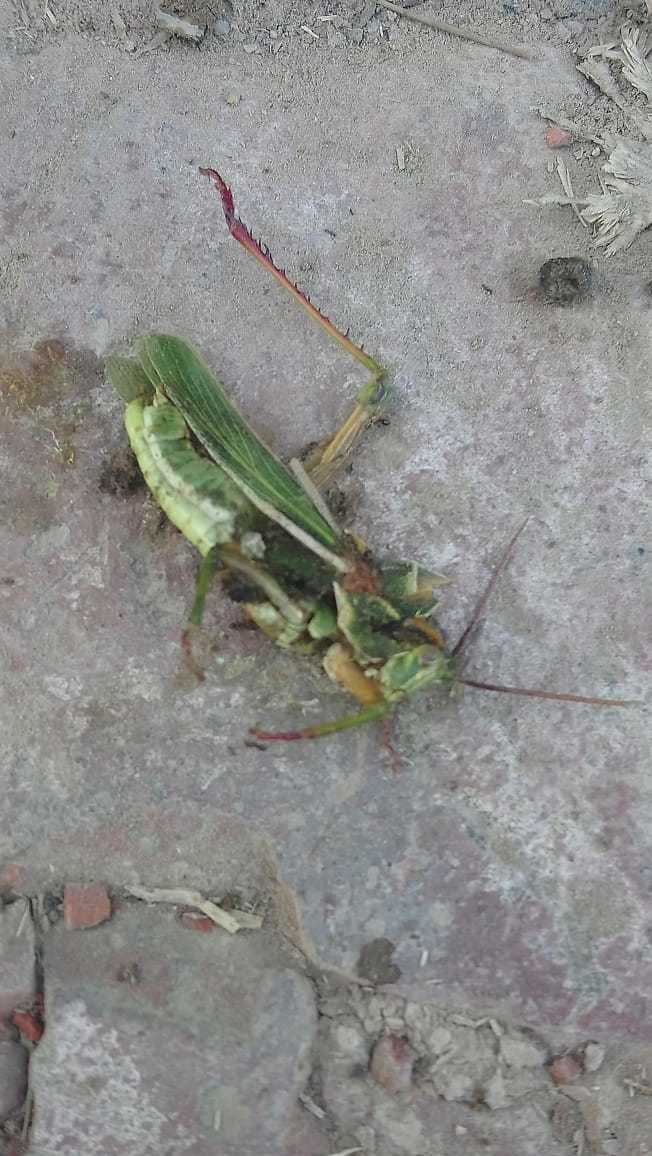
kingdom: Animalia
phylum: Arthropoda
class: Insecta
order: Orthoptera
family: Romaleidae
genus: Staleochlora
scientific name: Staleochlora viridicata
